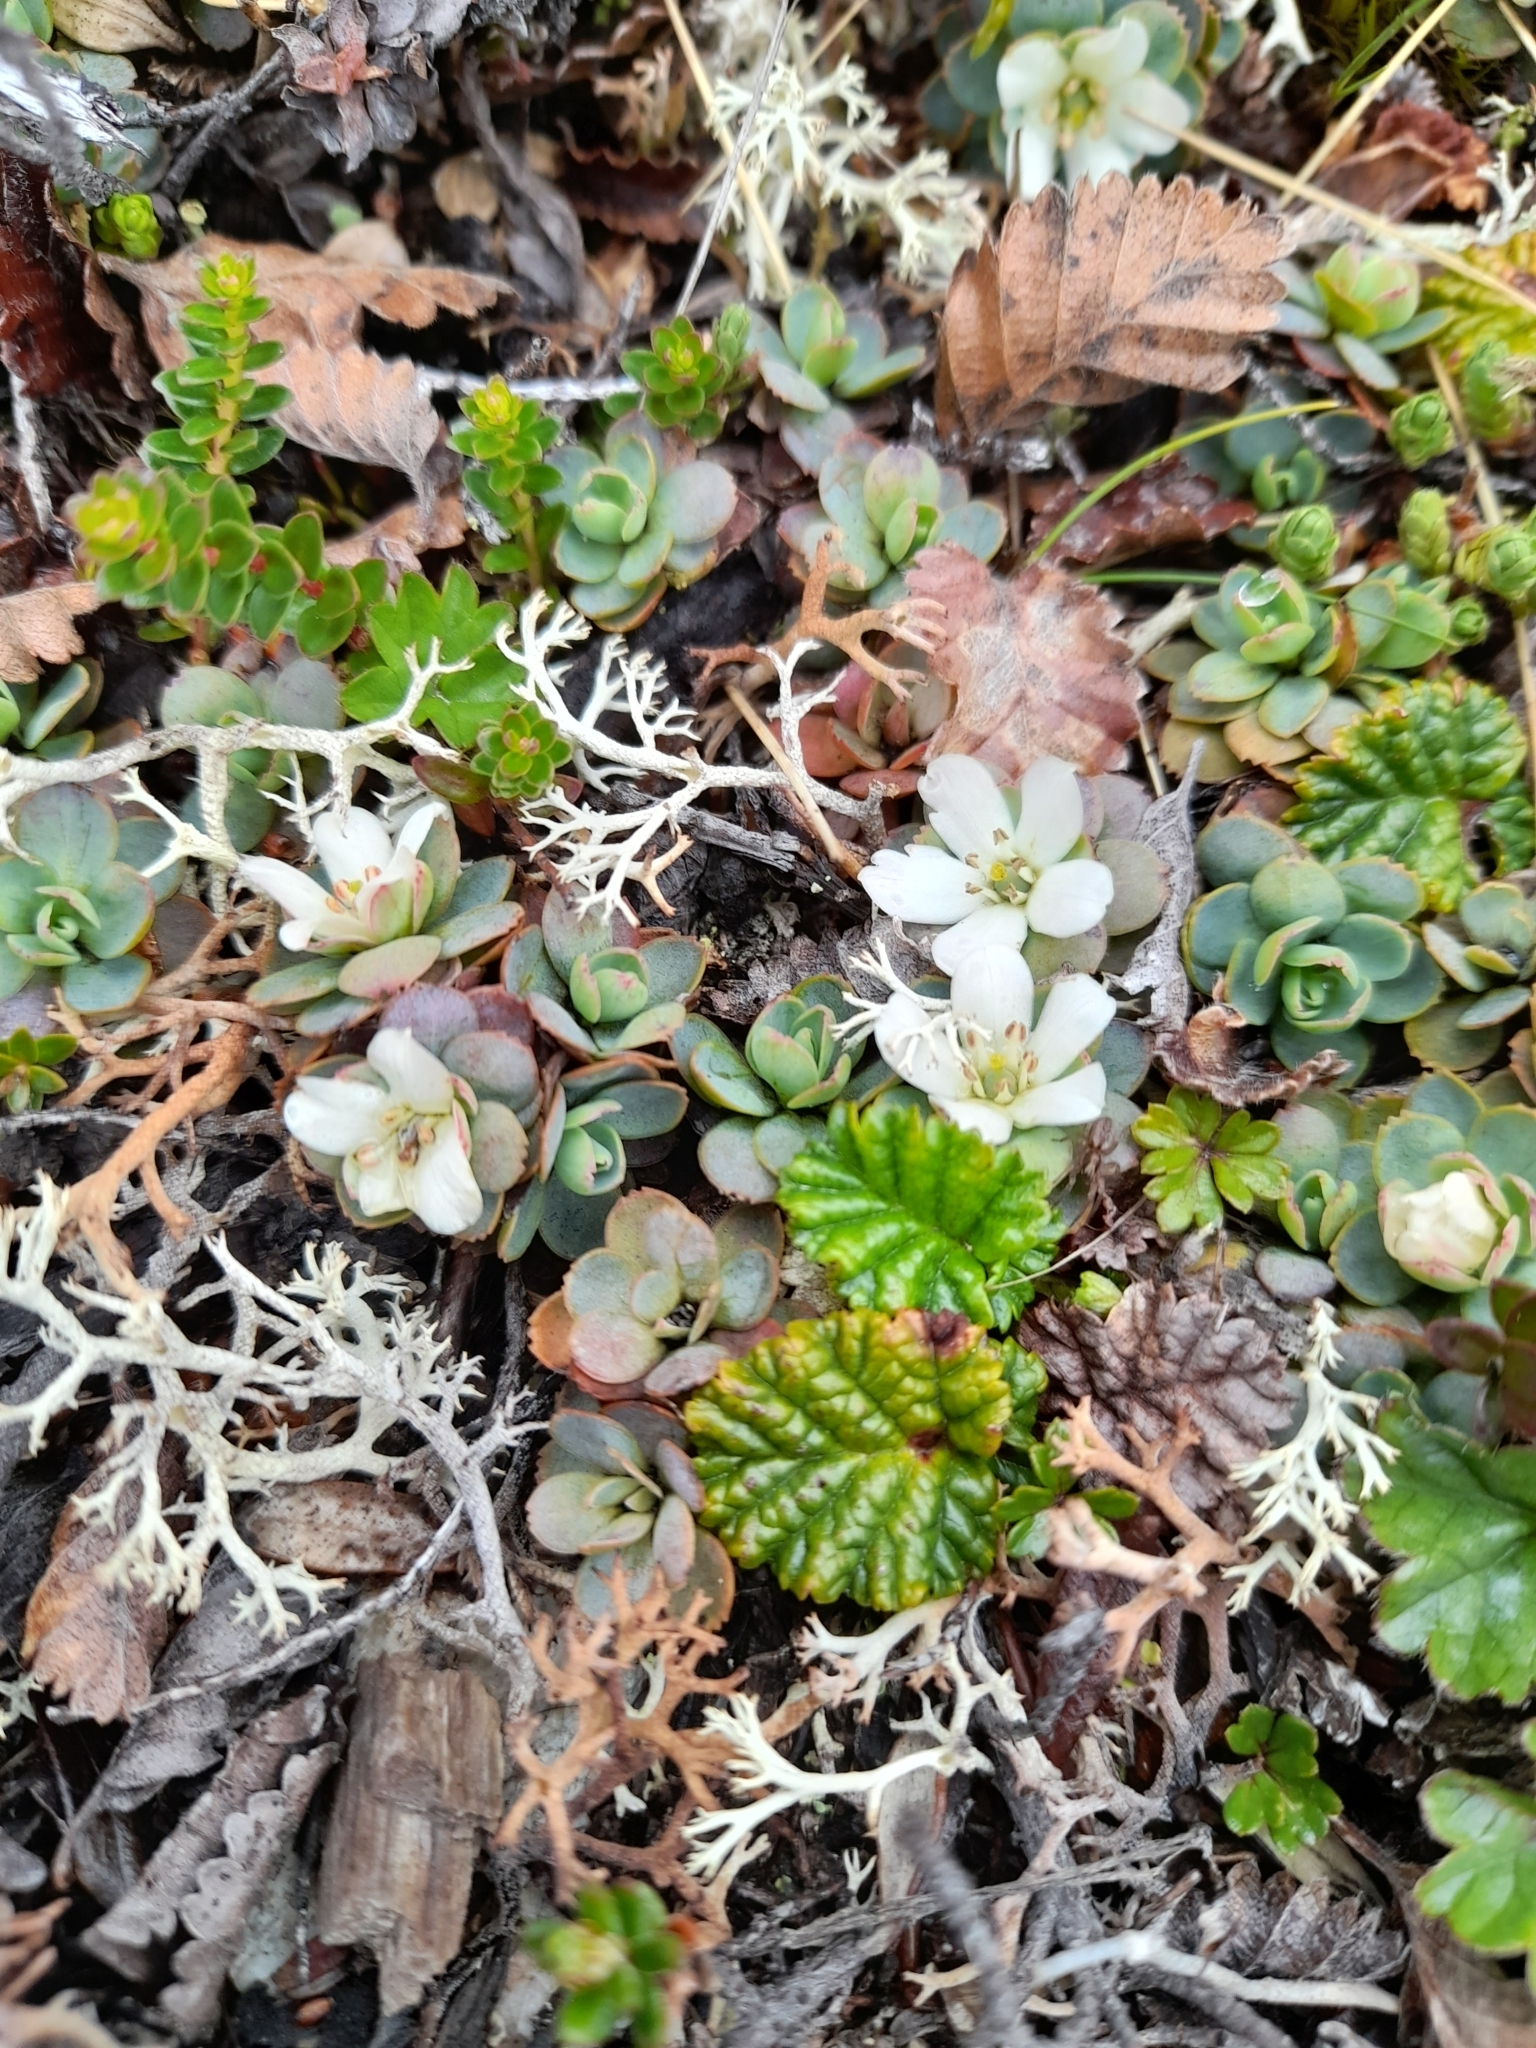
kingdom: Plantae
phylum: Tracheophyta
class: Magnoliopsida
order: Escalloniales
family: Escalloniaceae
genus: Tribeles
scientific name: Tribeles australis
